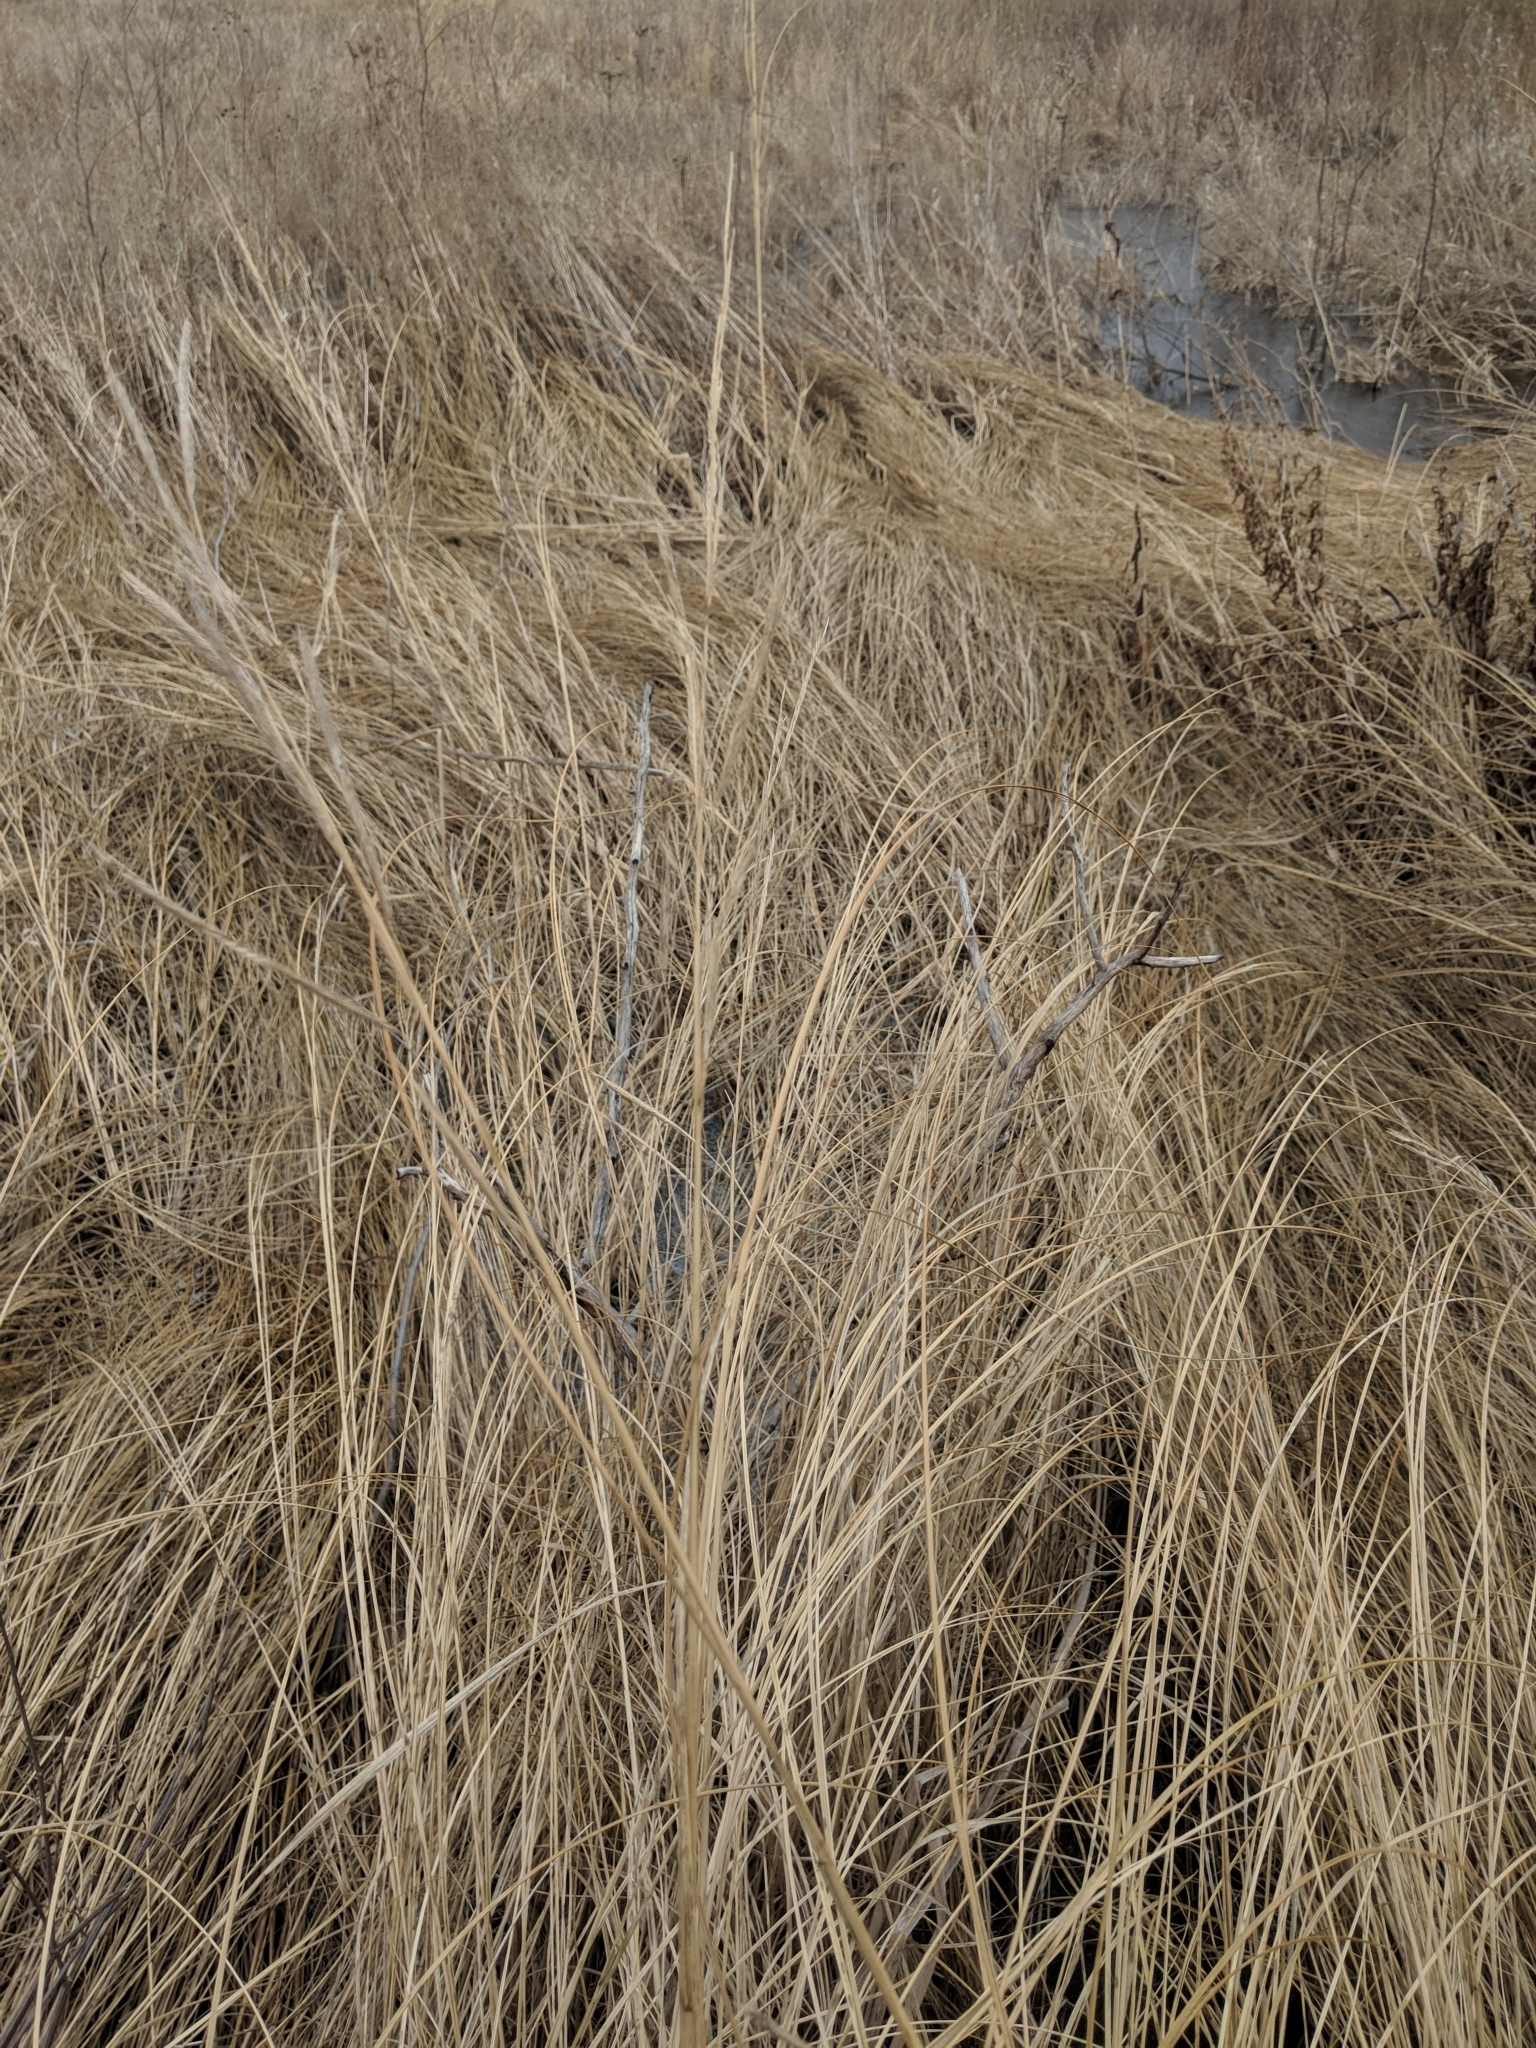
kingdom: Plantae
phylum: Tracheophyta
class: Liliopsida
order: Poales
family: Poaceae
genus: Sporobolus
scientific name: Sporobolus michauxianus
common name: Freshwater cordgrass
